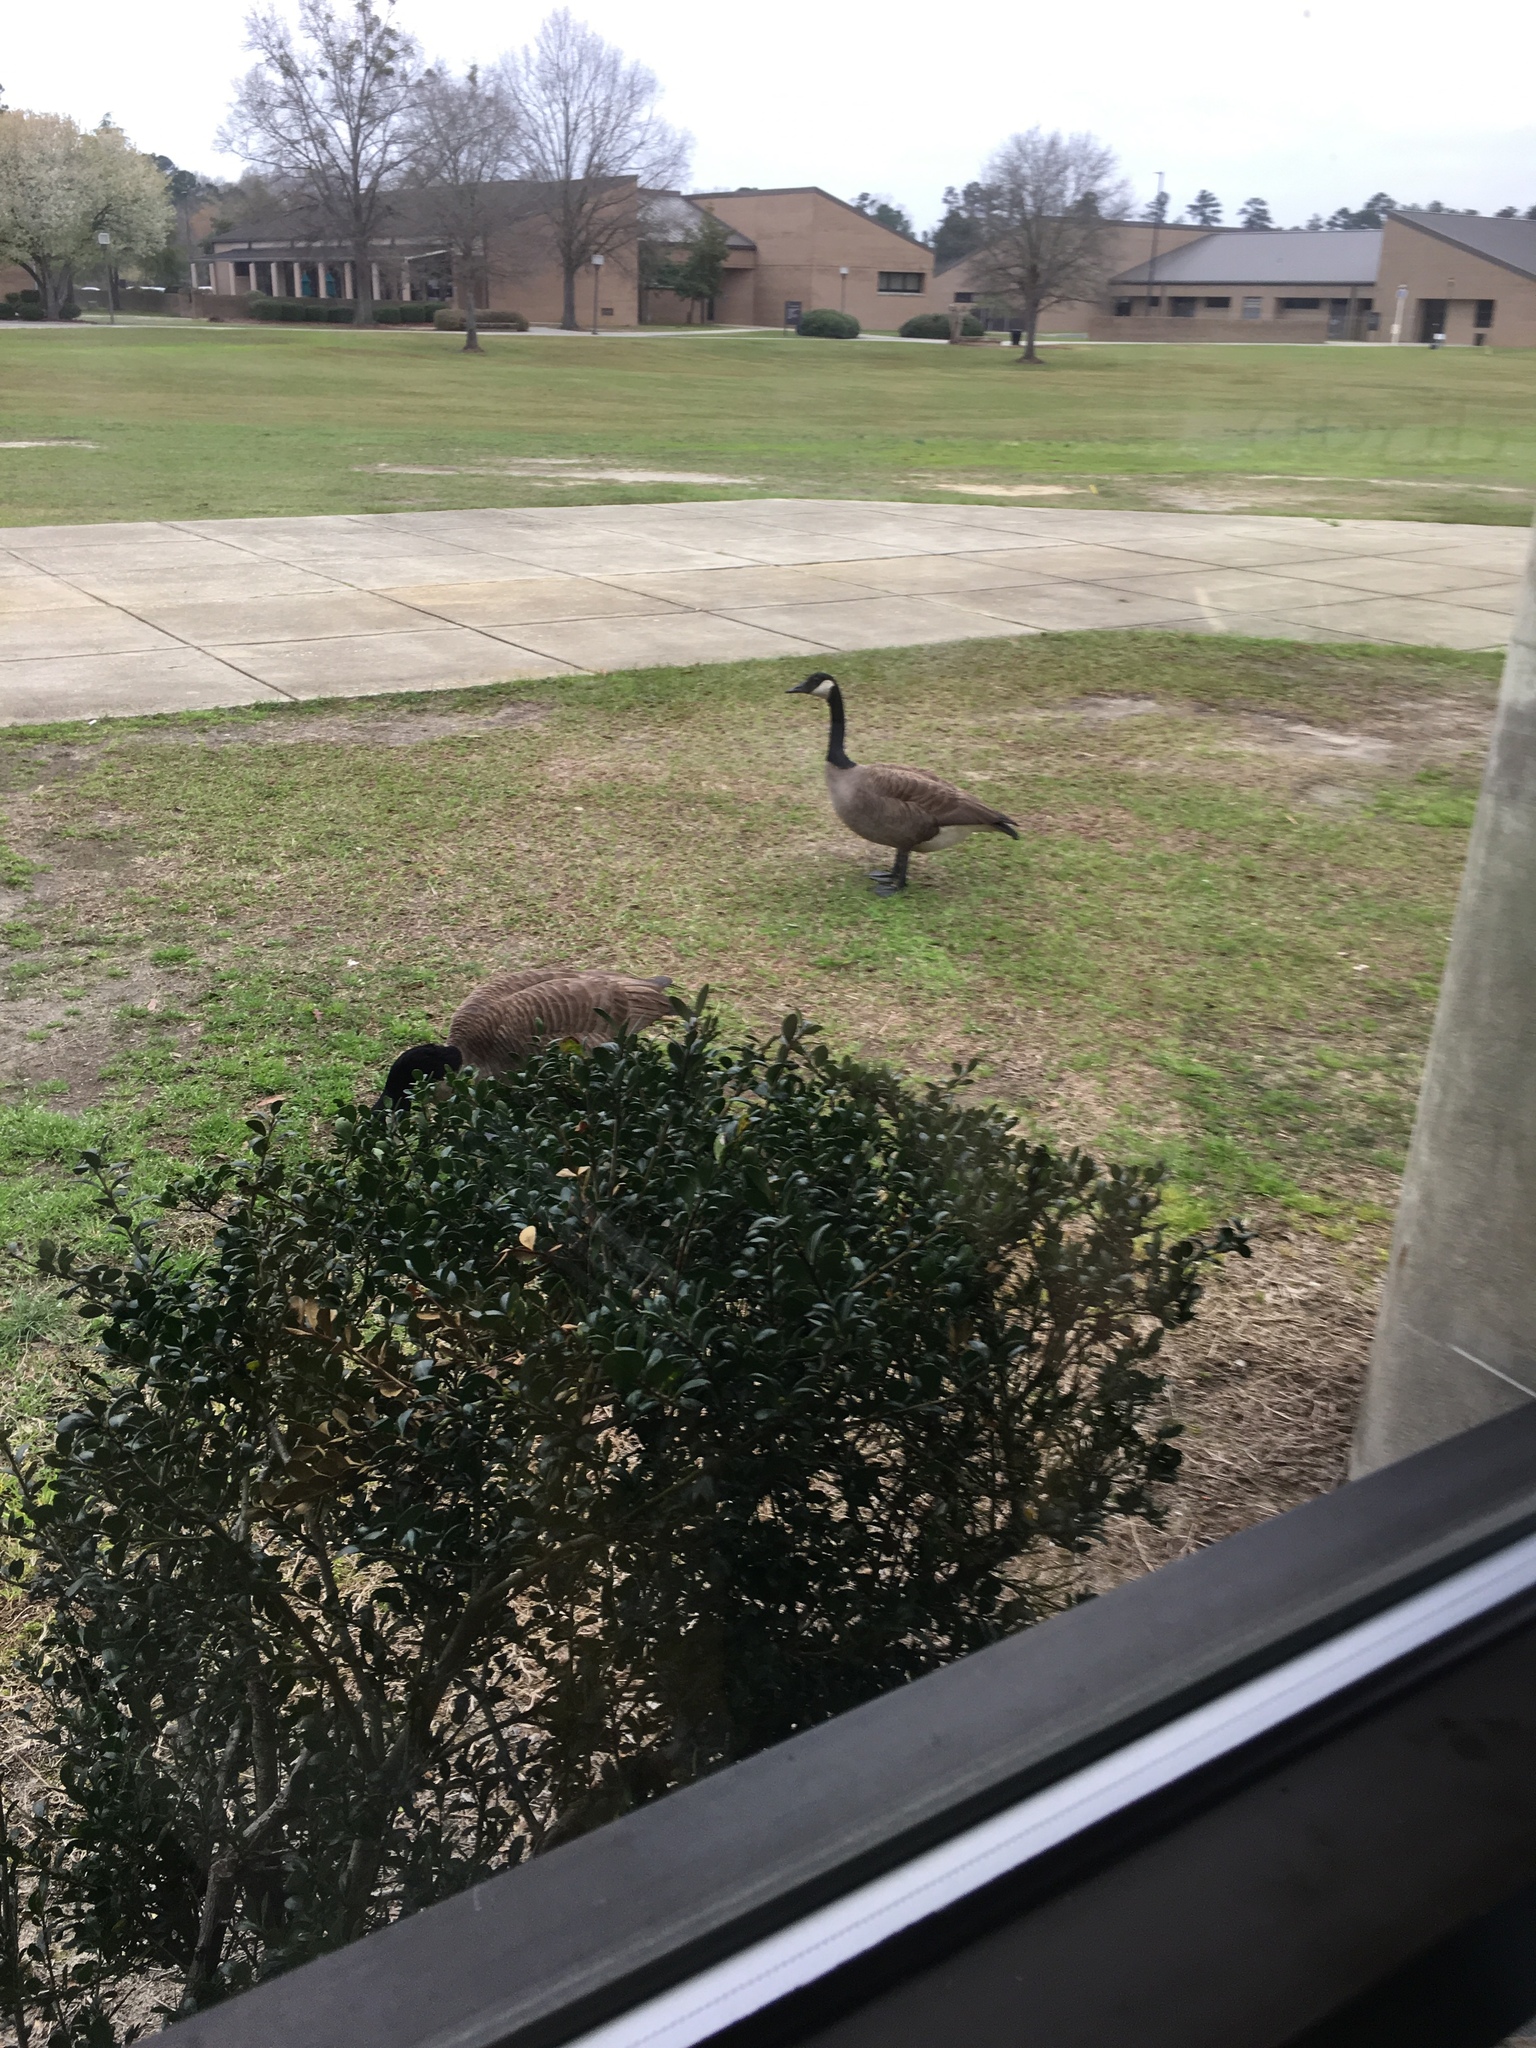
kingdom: Animalia
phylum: Chordata
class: Aves
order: Anseriformes
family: Anatidae
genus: Branta
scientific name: Branta canadensis
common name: Canada goose
